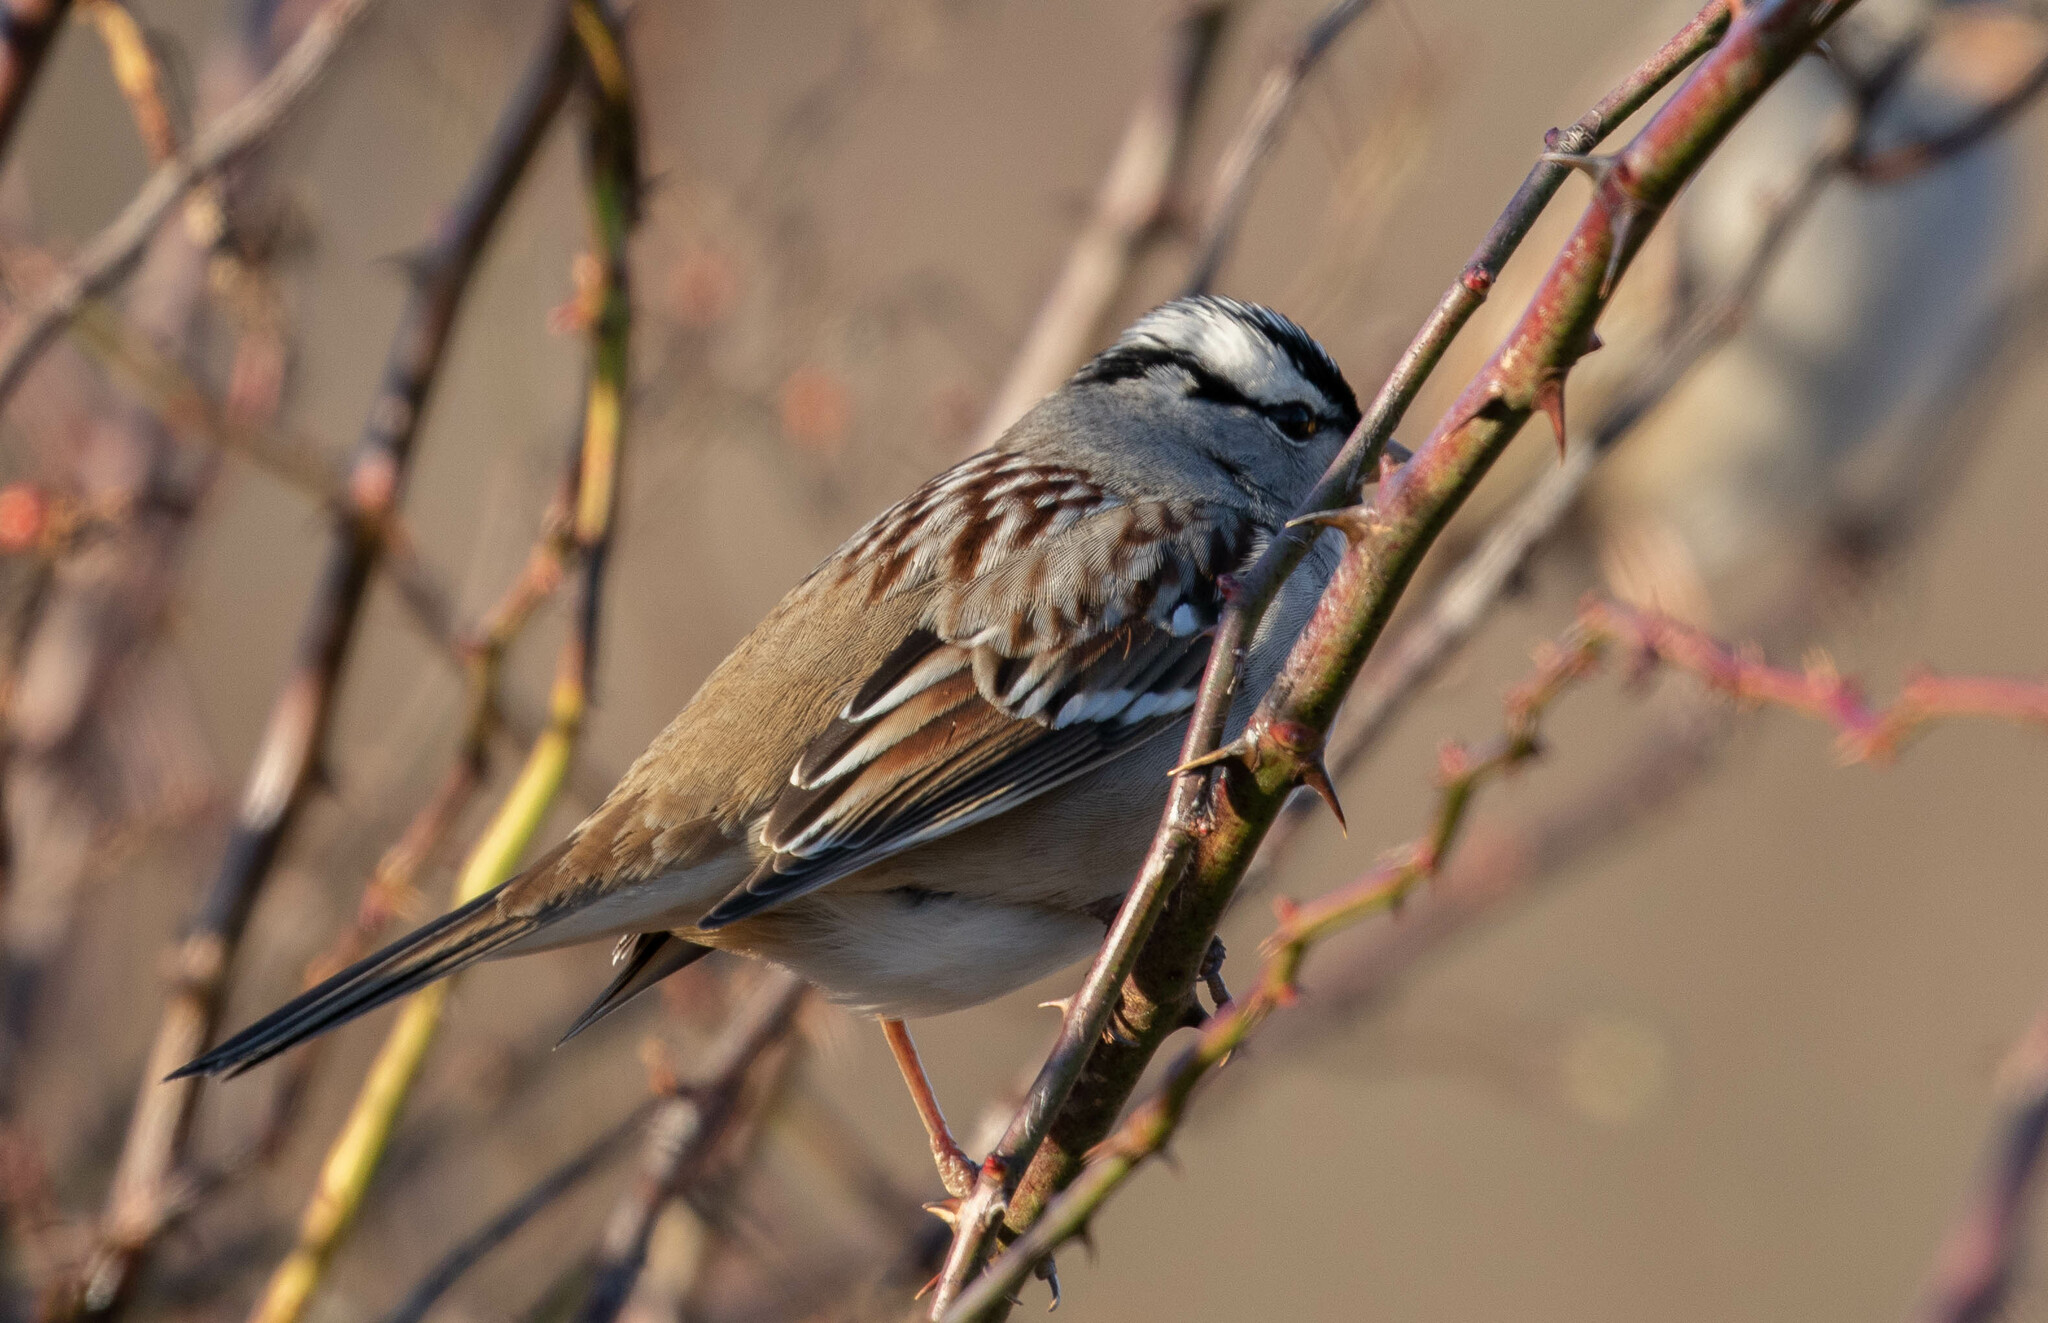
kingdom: Animalia
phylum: Chordata
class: Aves
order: Passeriformes
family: Passerellidae
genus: Zonotrichia
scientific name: Zonotrichia leucophrys
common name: White-crowned sparrow
